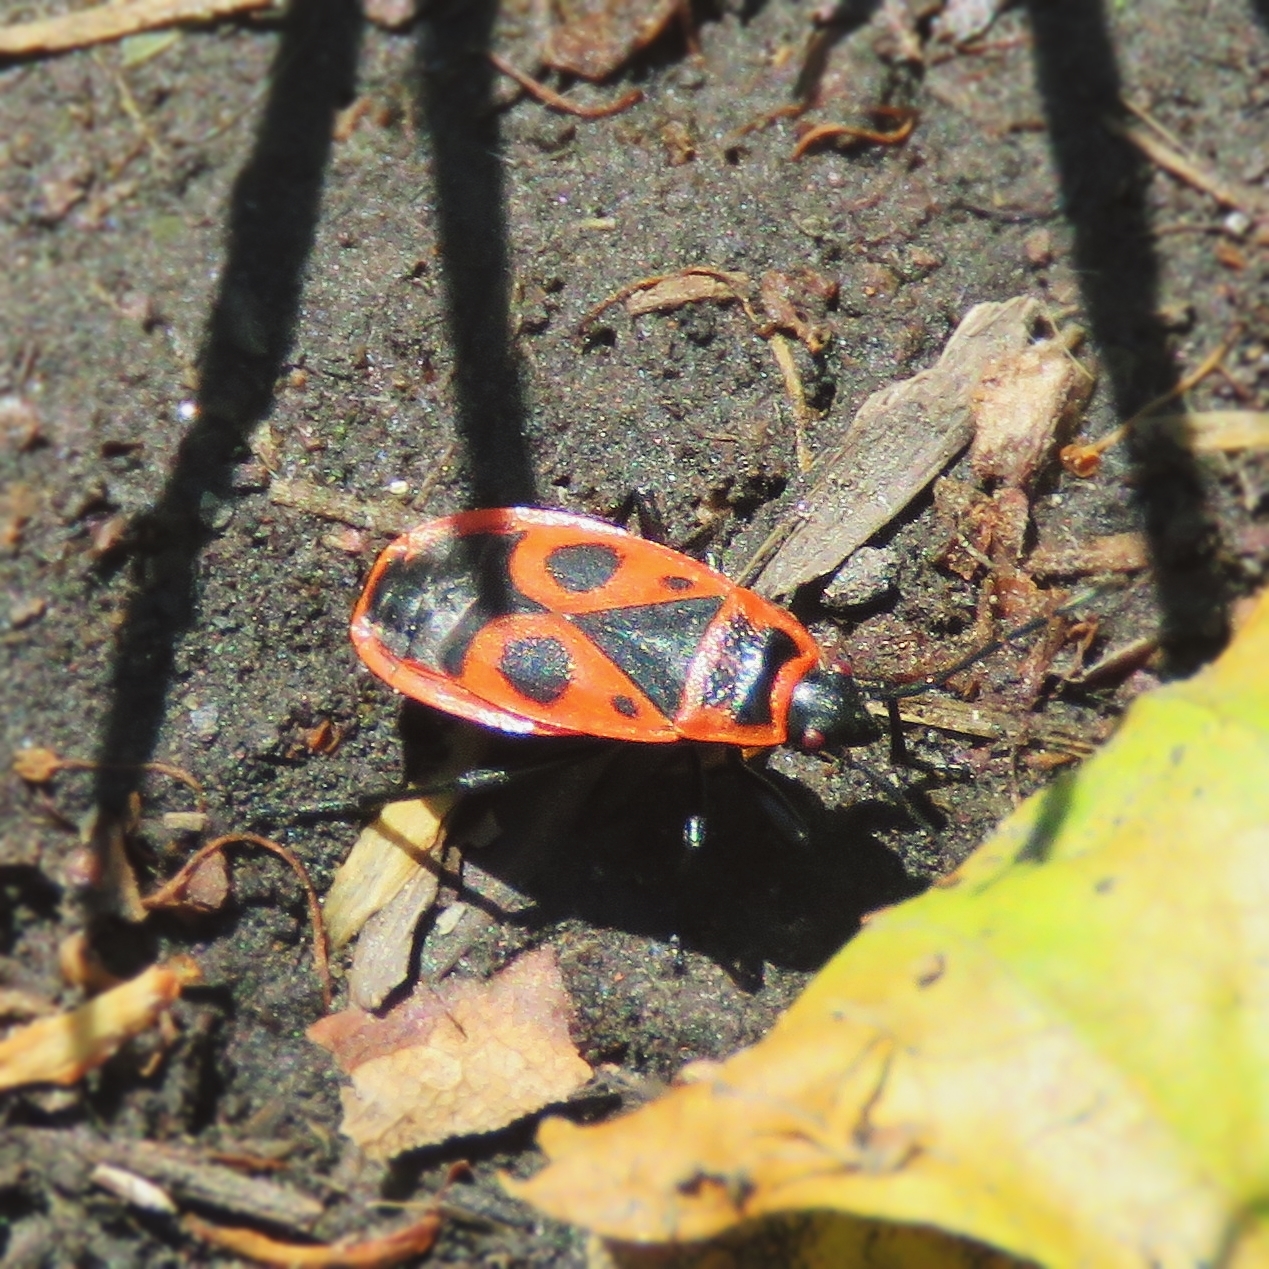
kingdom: Animalia
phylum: Arthropoda
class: Insecta
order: Hemiptera
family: Pyrrhocoridae
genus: Pyrrhocoris
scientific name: Pyrrhocoris apterus
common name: Firebug
